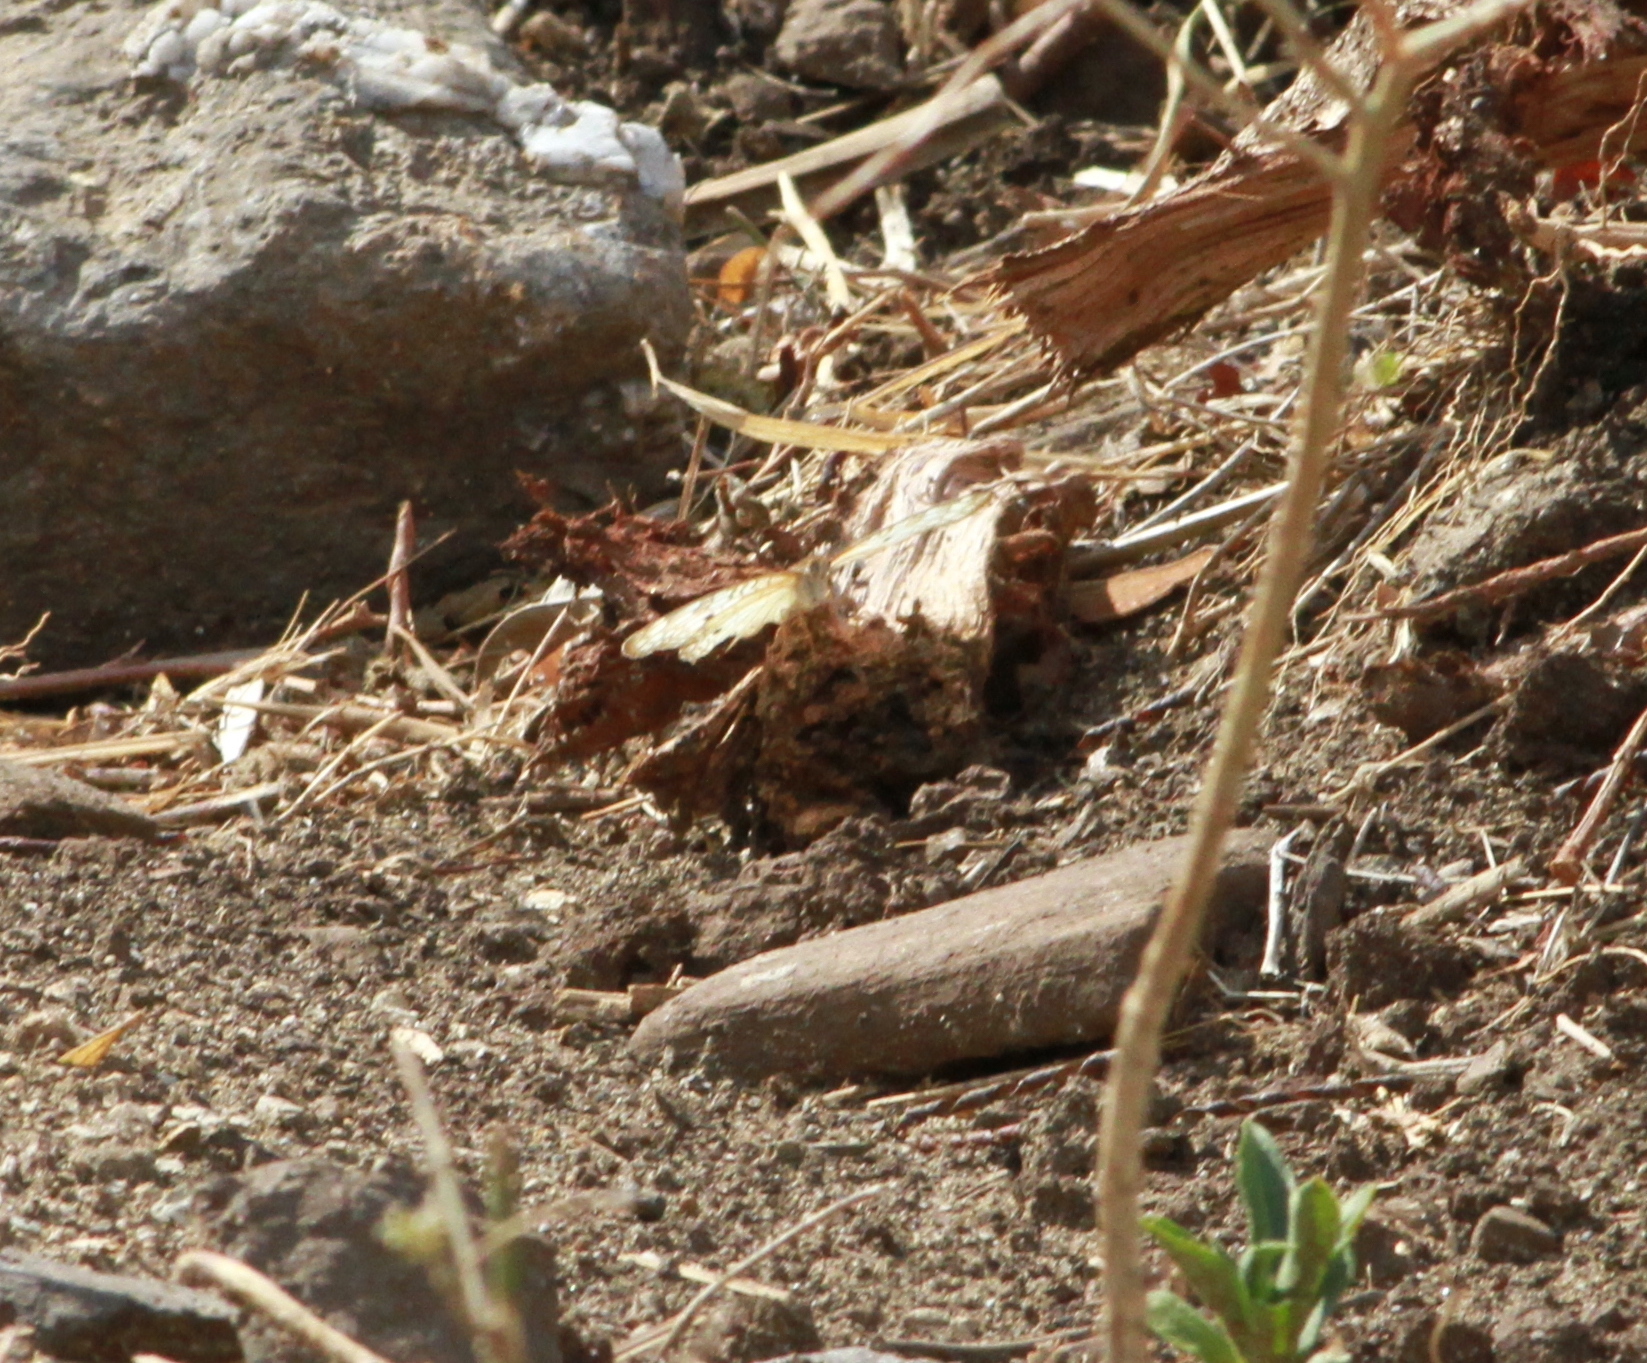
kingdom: Animalia
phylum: Arthropoda
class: Insecta
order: Lepidoptera
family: Nymphalidae
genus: Anartia
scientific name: Anartia jatrophae
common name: White peacock
